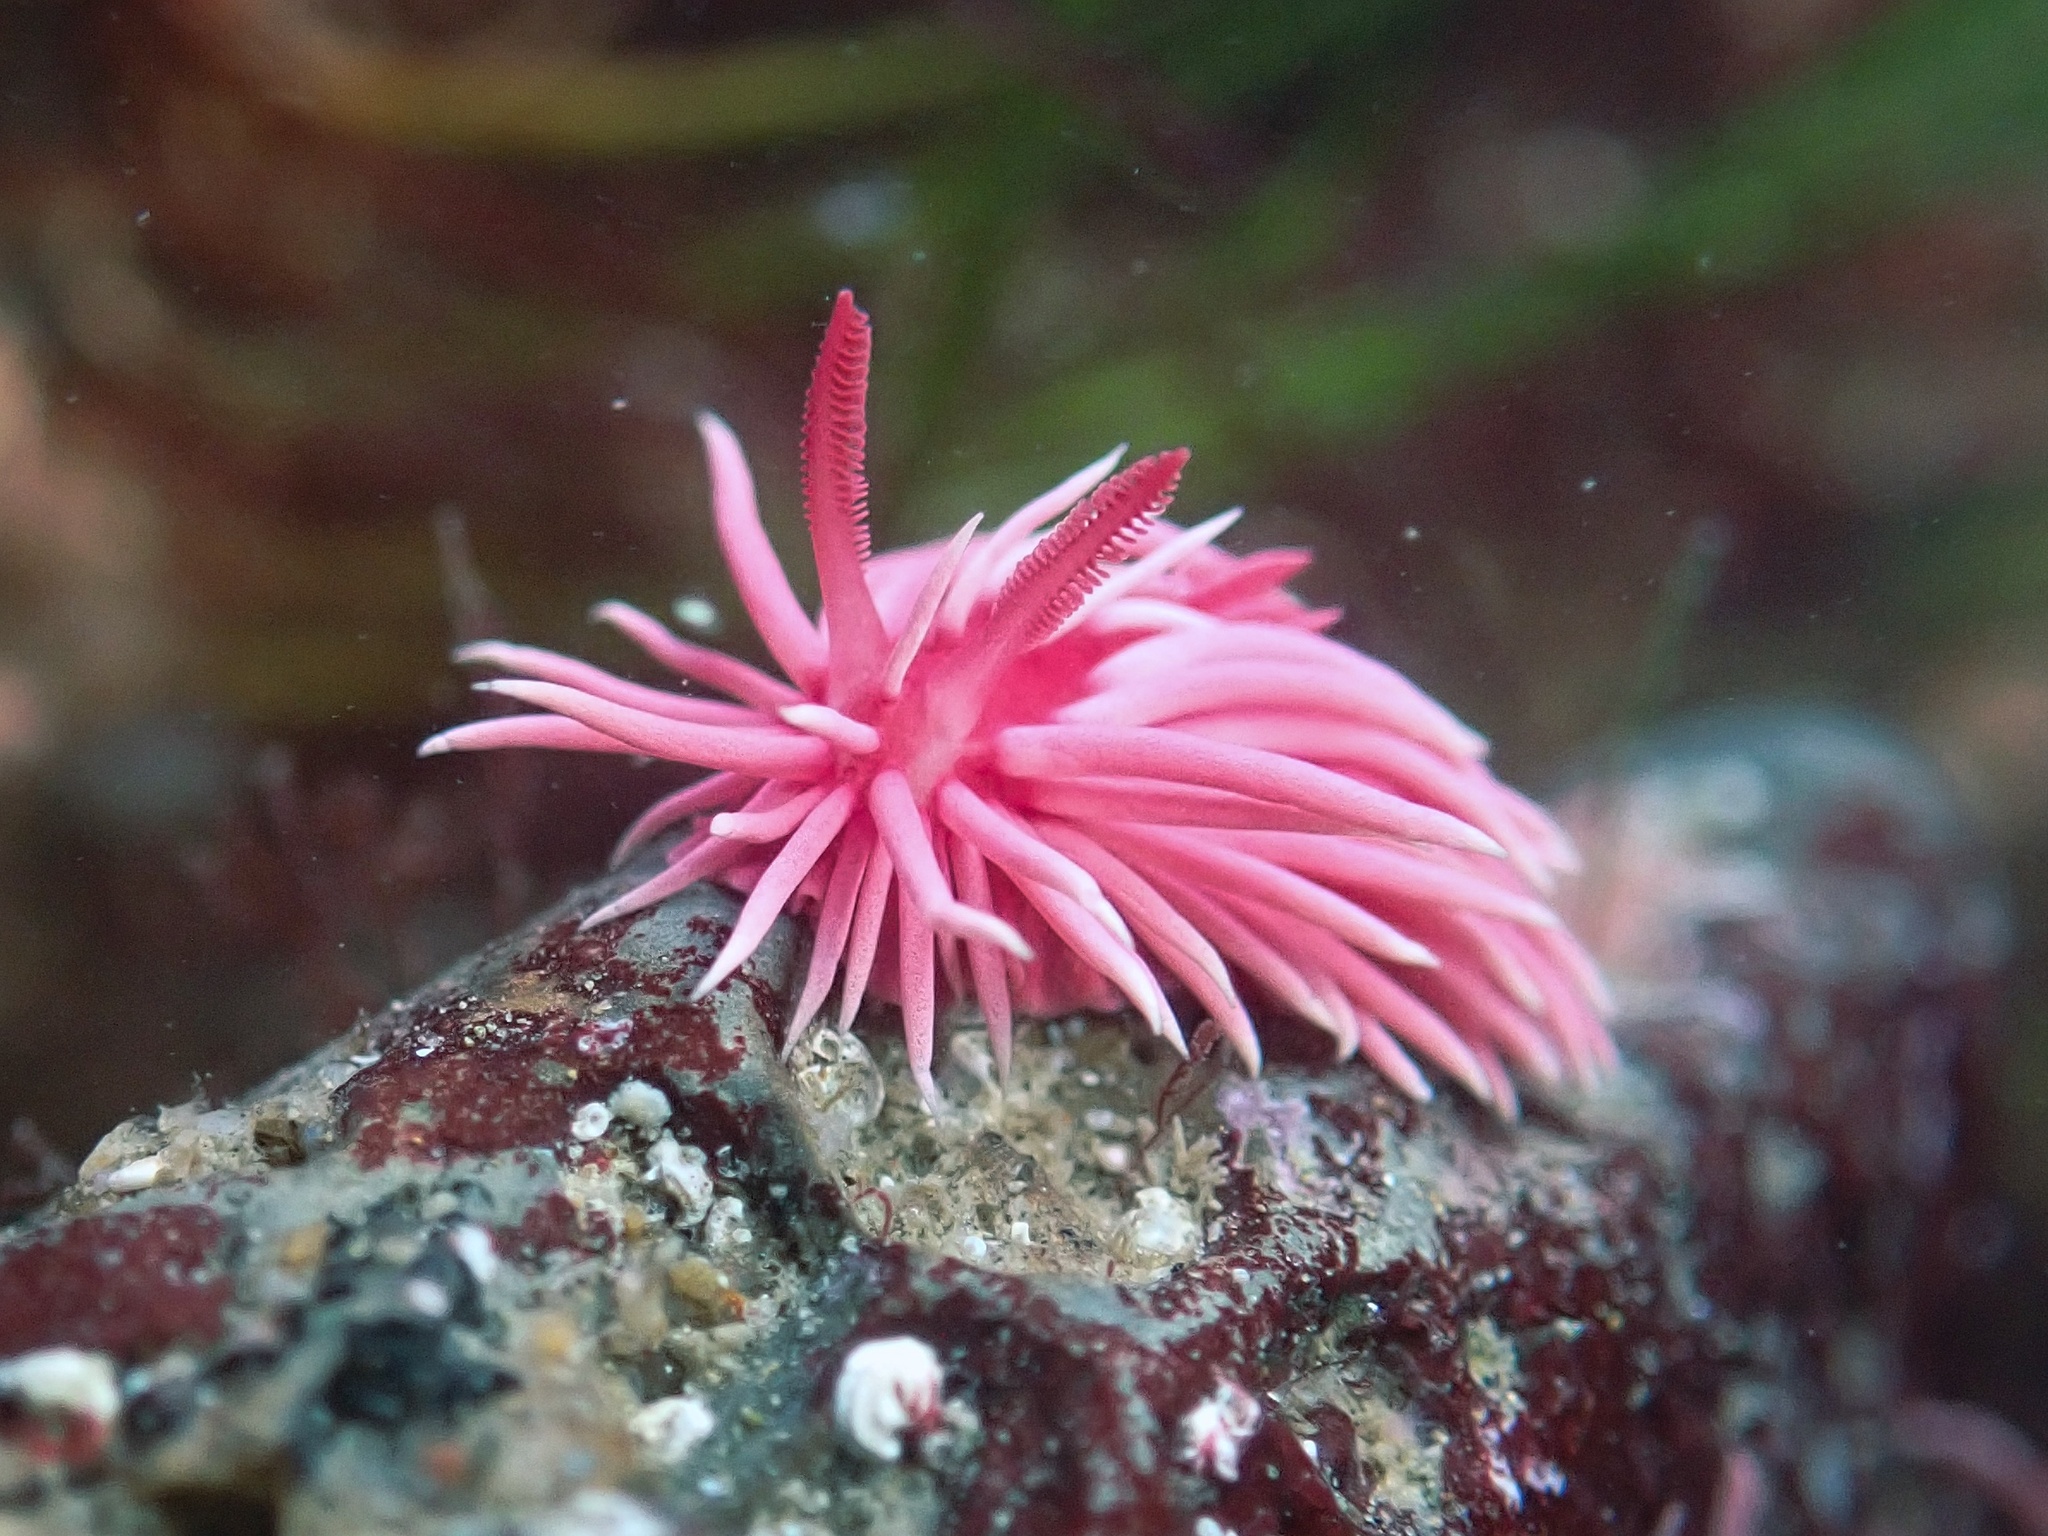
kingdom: Animalia
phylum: Mollusca
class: Gastropoda
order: Nudibranchia
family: Goniodorididae
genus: Okenia
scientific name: Okenia
